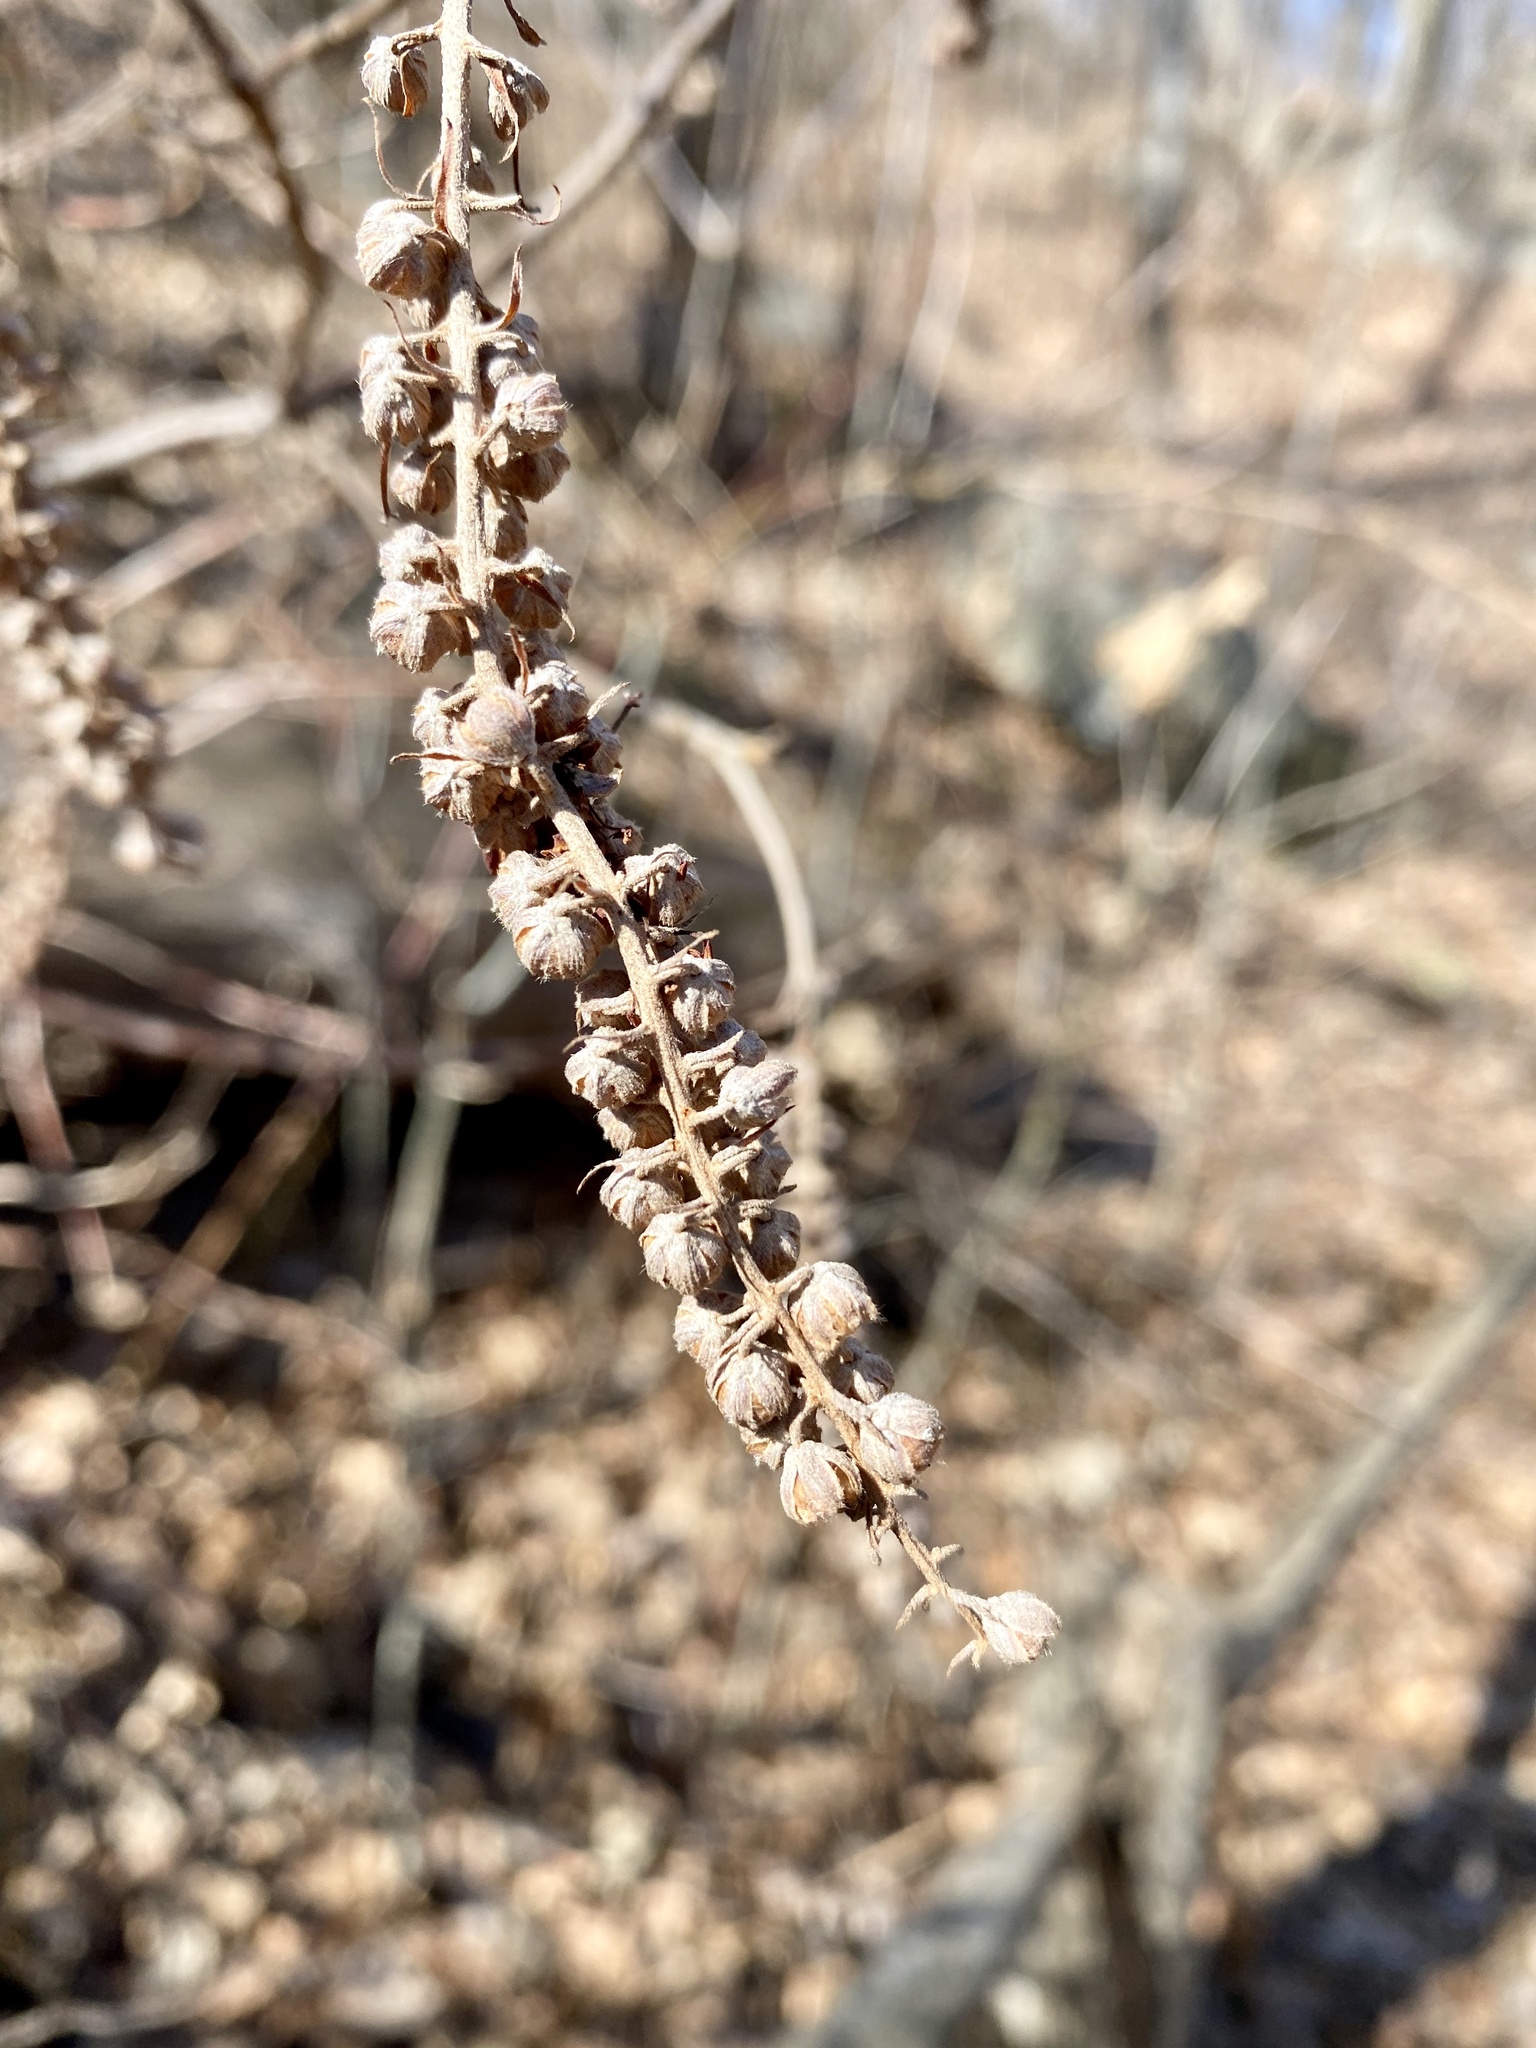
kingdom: Plantae
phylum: Tracheophyta
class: Magnoliopsida
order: Ericales
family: Clethraceae
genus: Clethra
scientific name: Clethra alnifolia
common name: Sweet pepperbush
